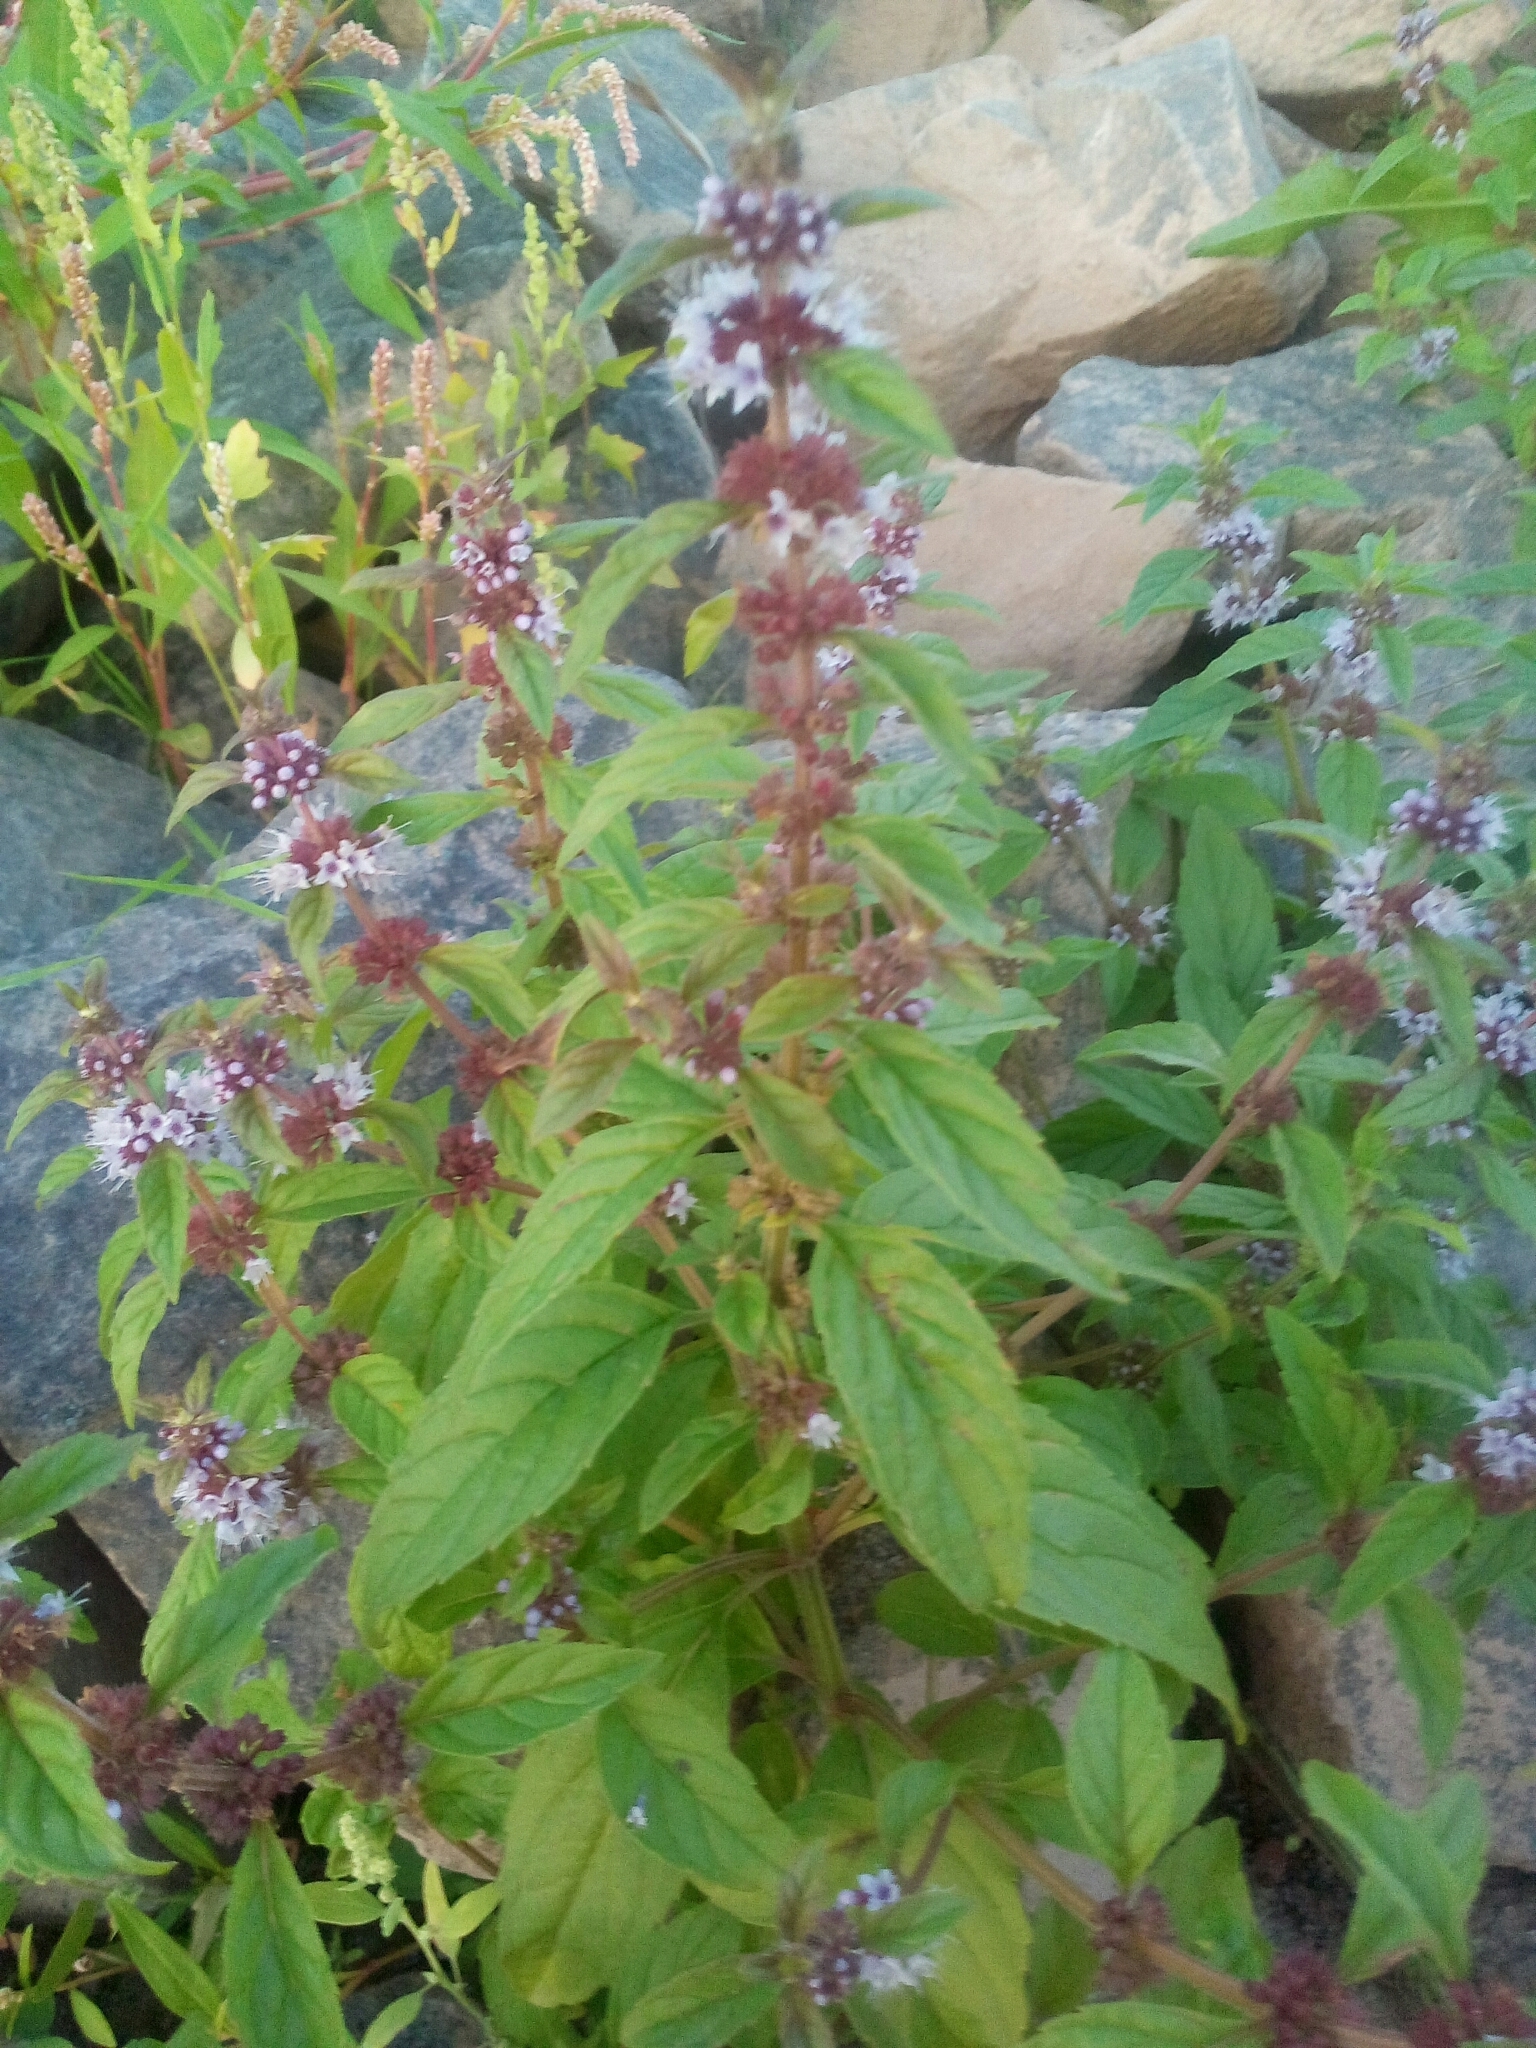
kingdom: Plantae
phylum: Tracheophyta
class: Magnoliopsida
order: Lamiales
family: Lamiaceae
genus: Mentha
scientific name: Mentha arvensis
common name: Corn mint
